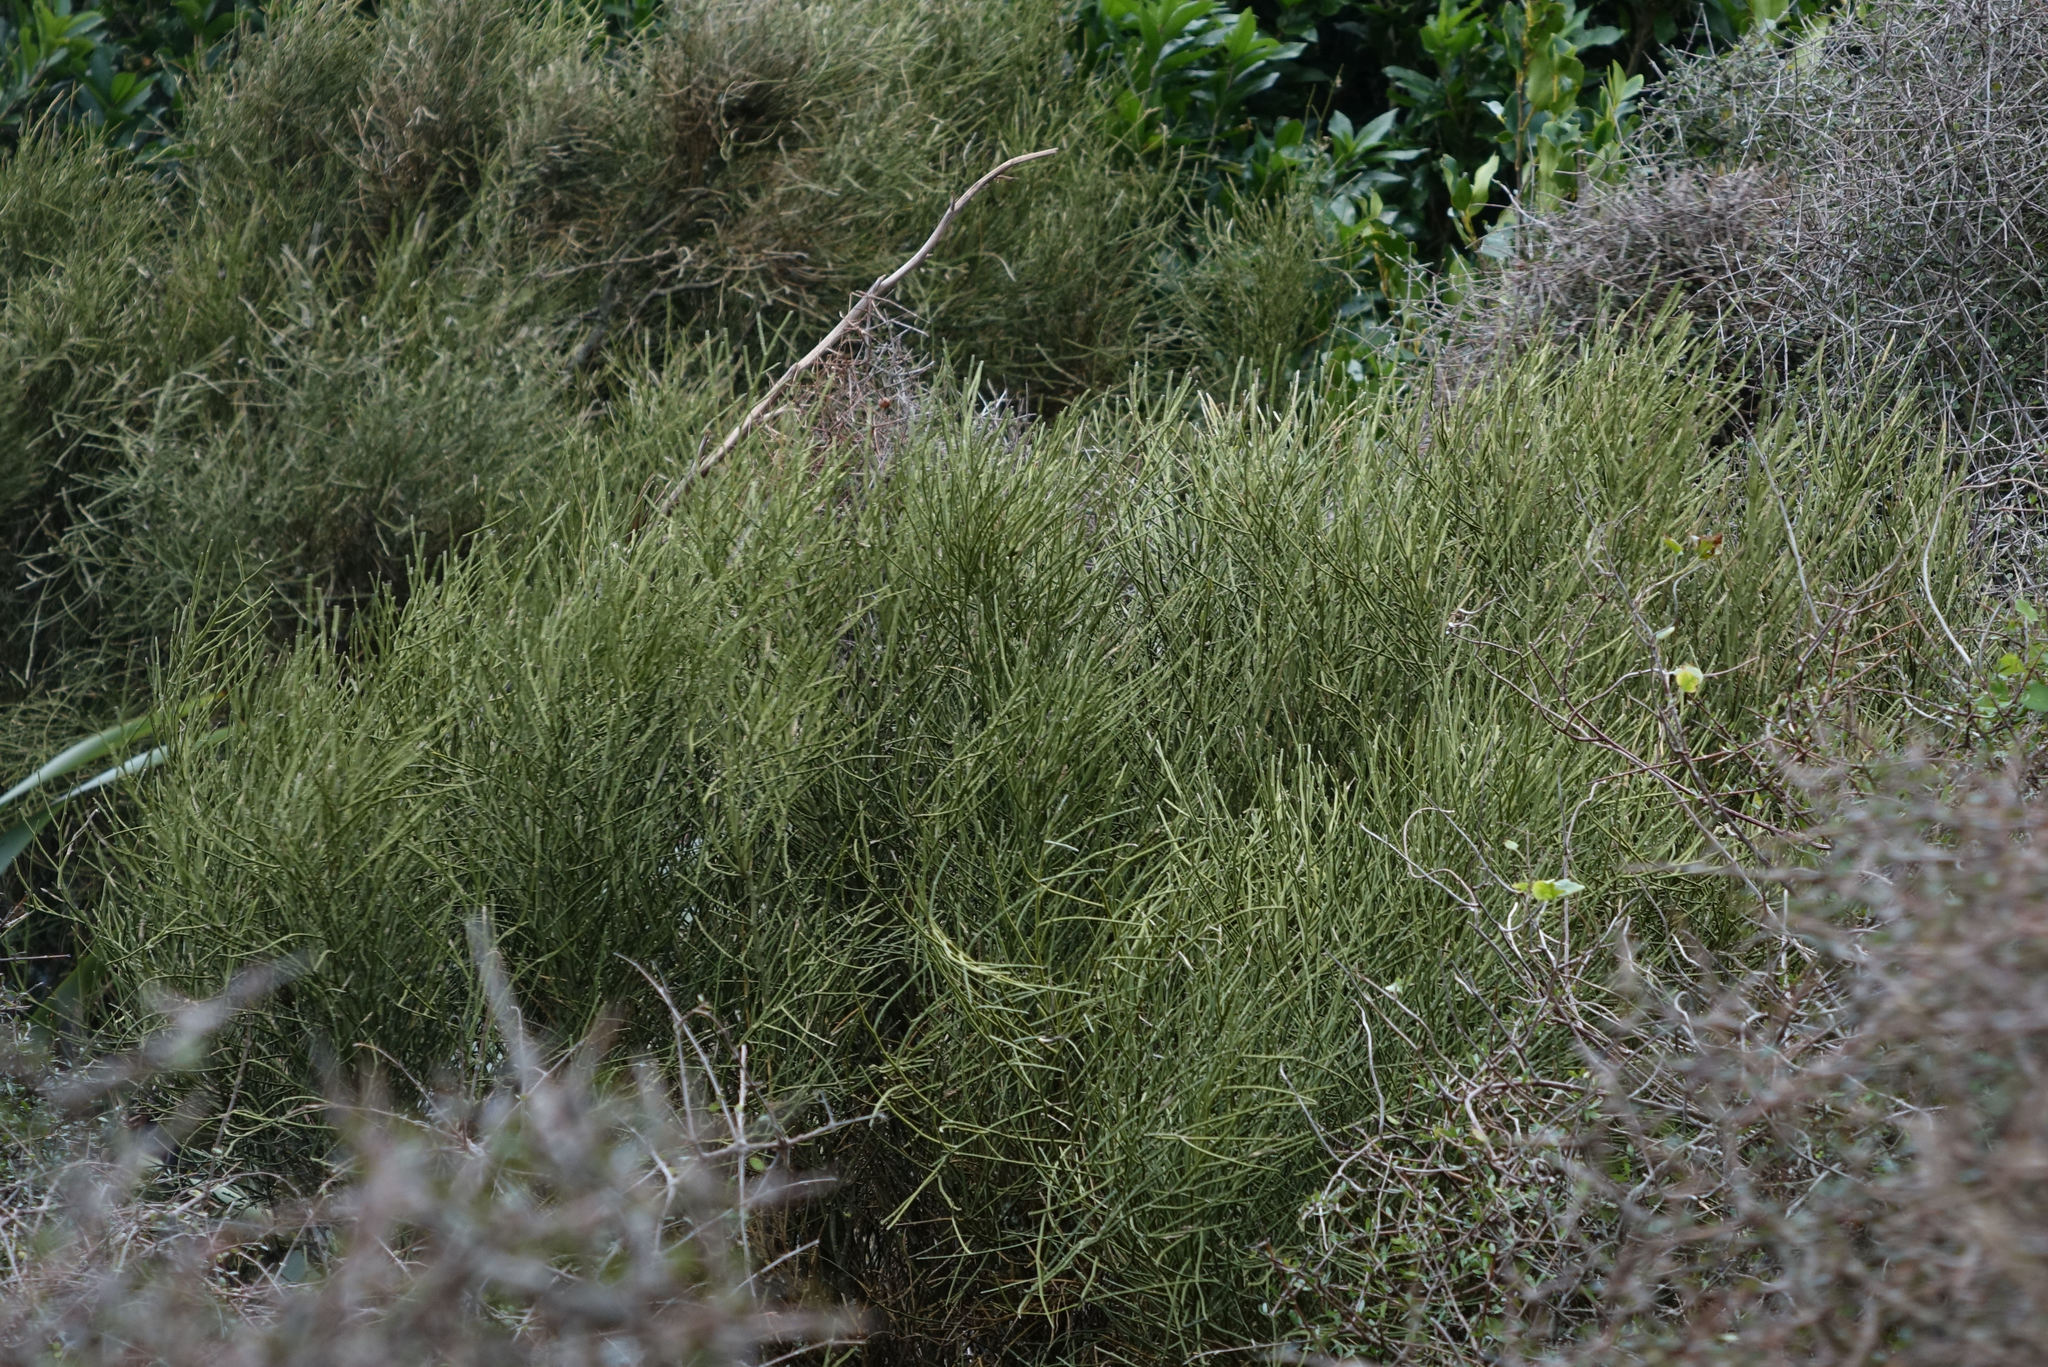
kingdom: Plantae
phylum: Tracheophyta
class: Magnoliopsida
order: Fabales
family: Fabaceae
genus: Carmichaelia
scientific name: Carmichaelia petriei
